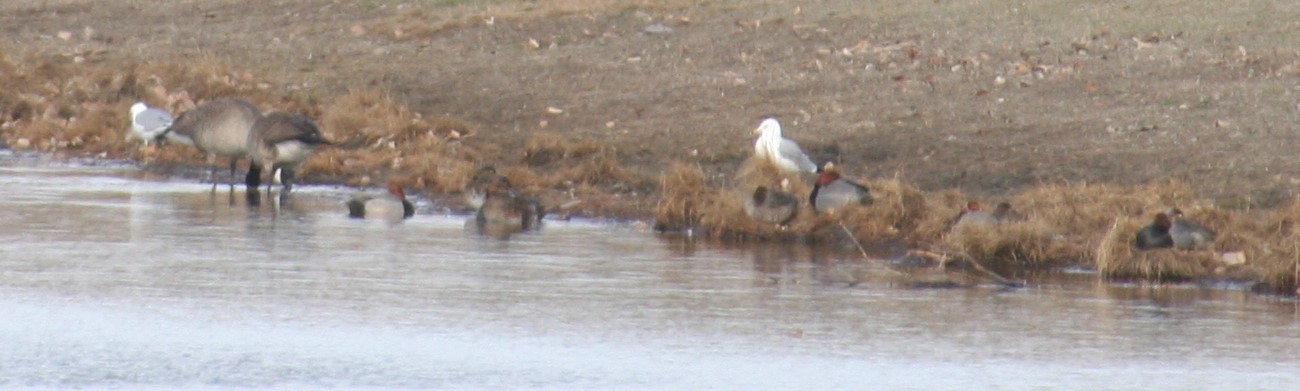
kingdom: Animalia
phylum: Chordata
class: Aves
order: Charadriiformes
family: Laridae
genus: Larus
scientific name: Larus delawarensis
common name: Ring-billed gull
